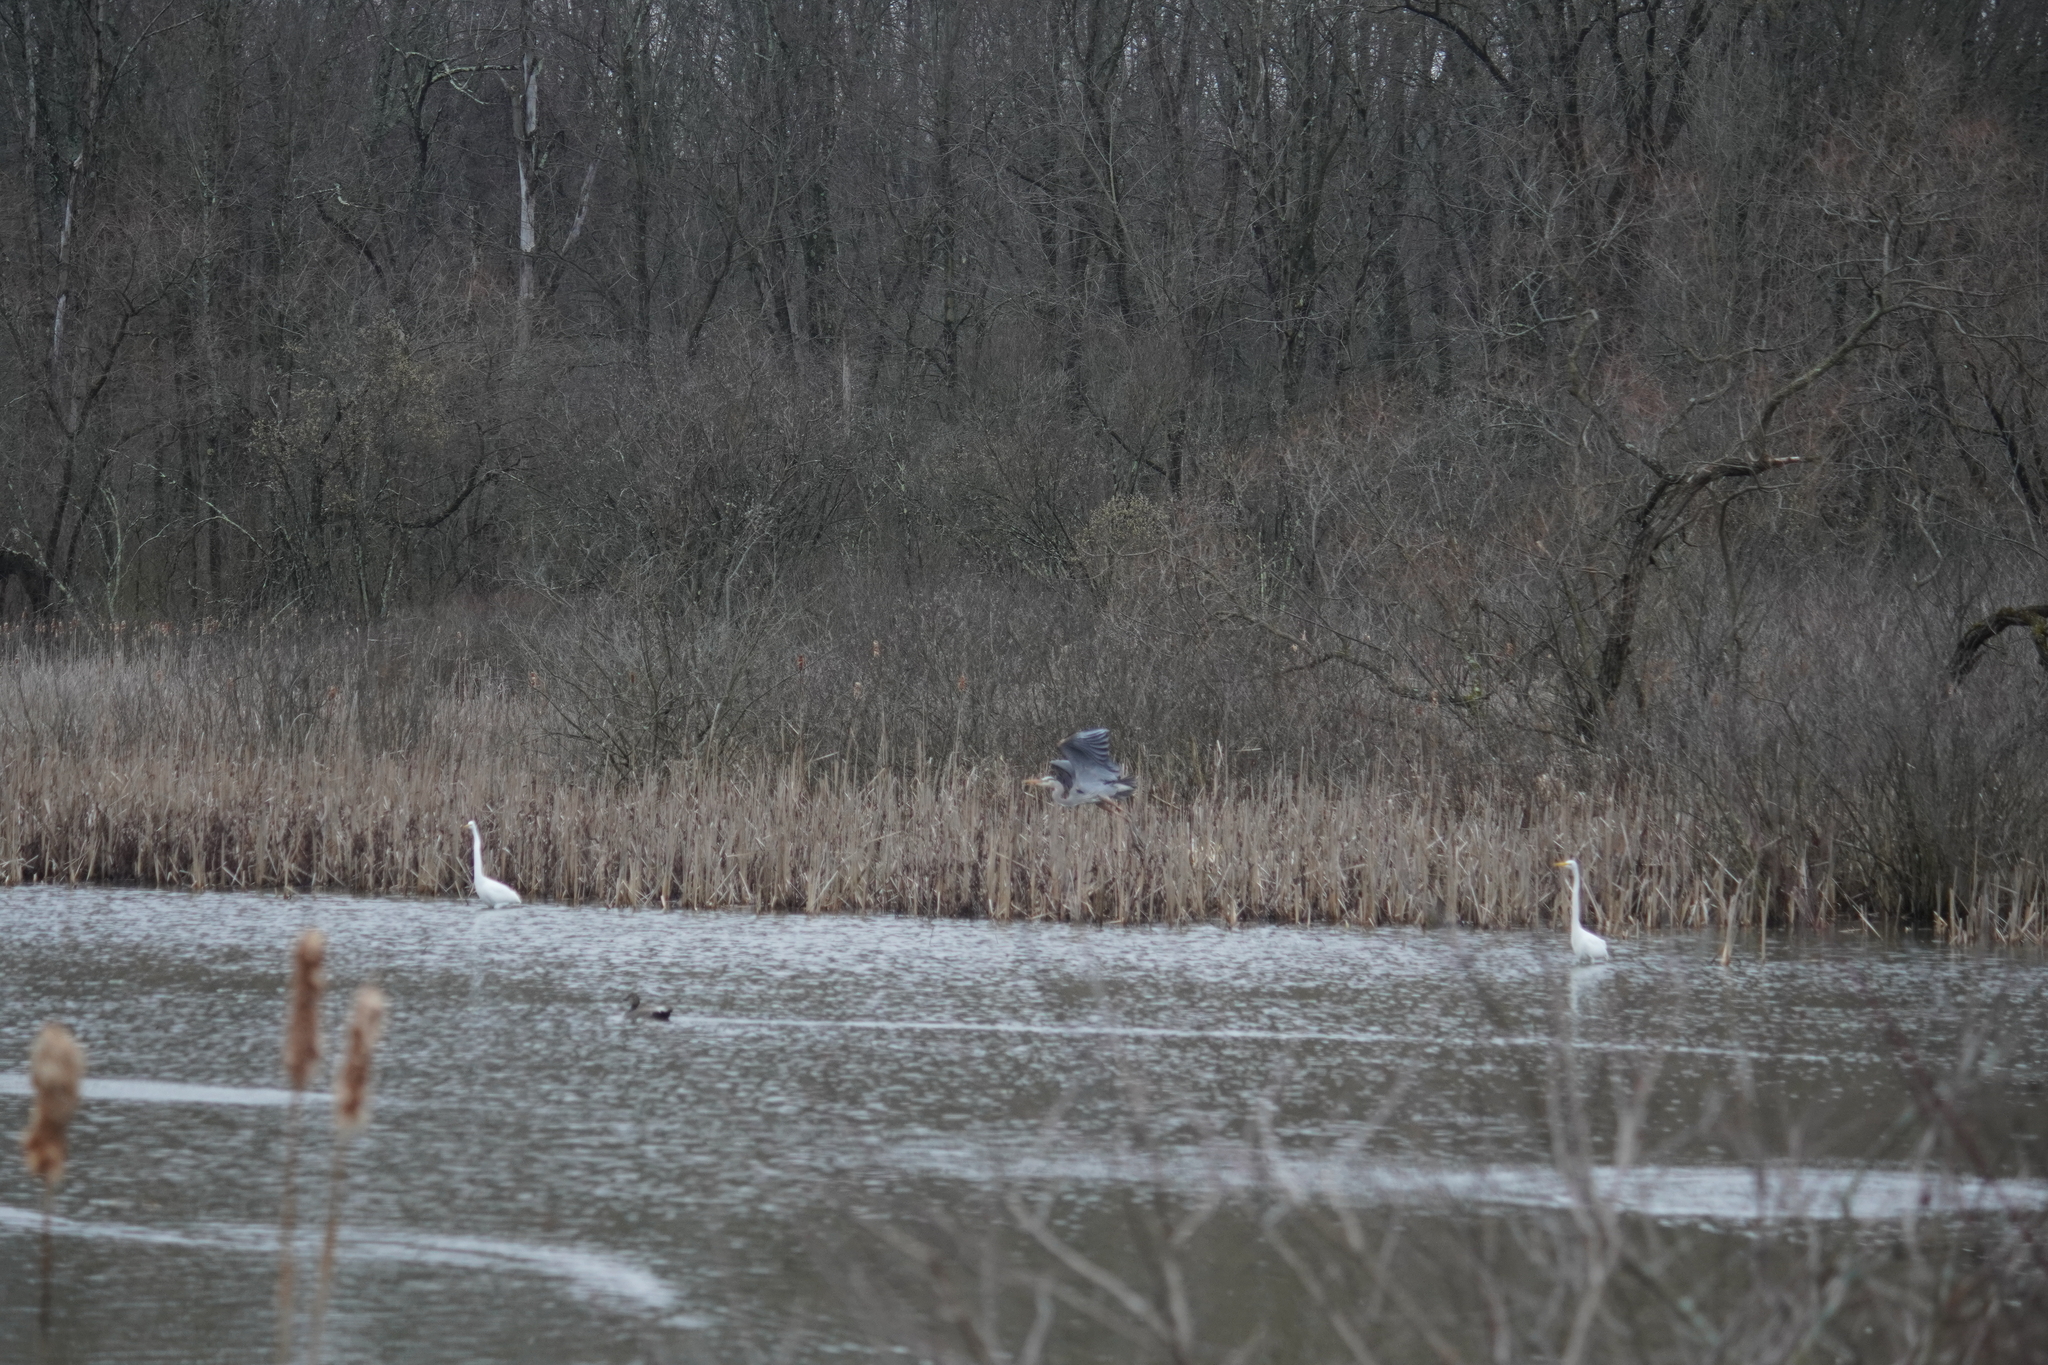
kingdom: Animalia
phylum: Chordata
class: Aves
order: Pelecaniformes
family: Ardeidae
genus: Ardea
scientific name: Ardea herodias
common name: Great blue heron
